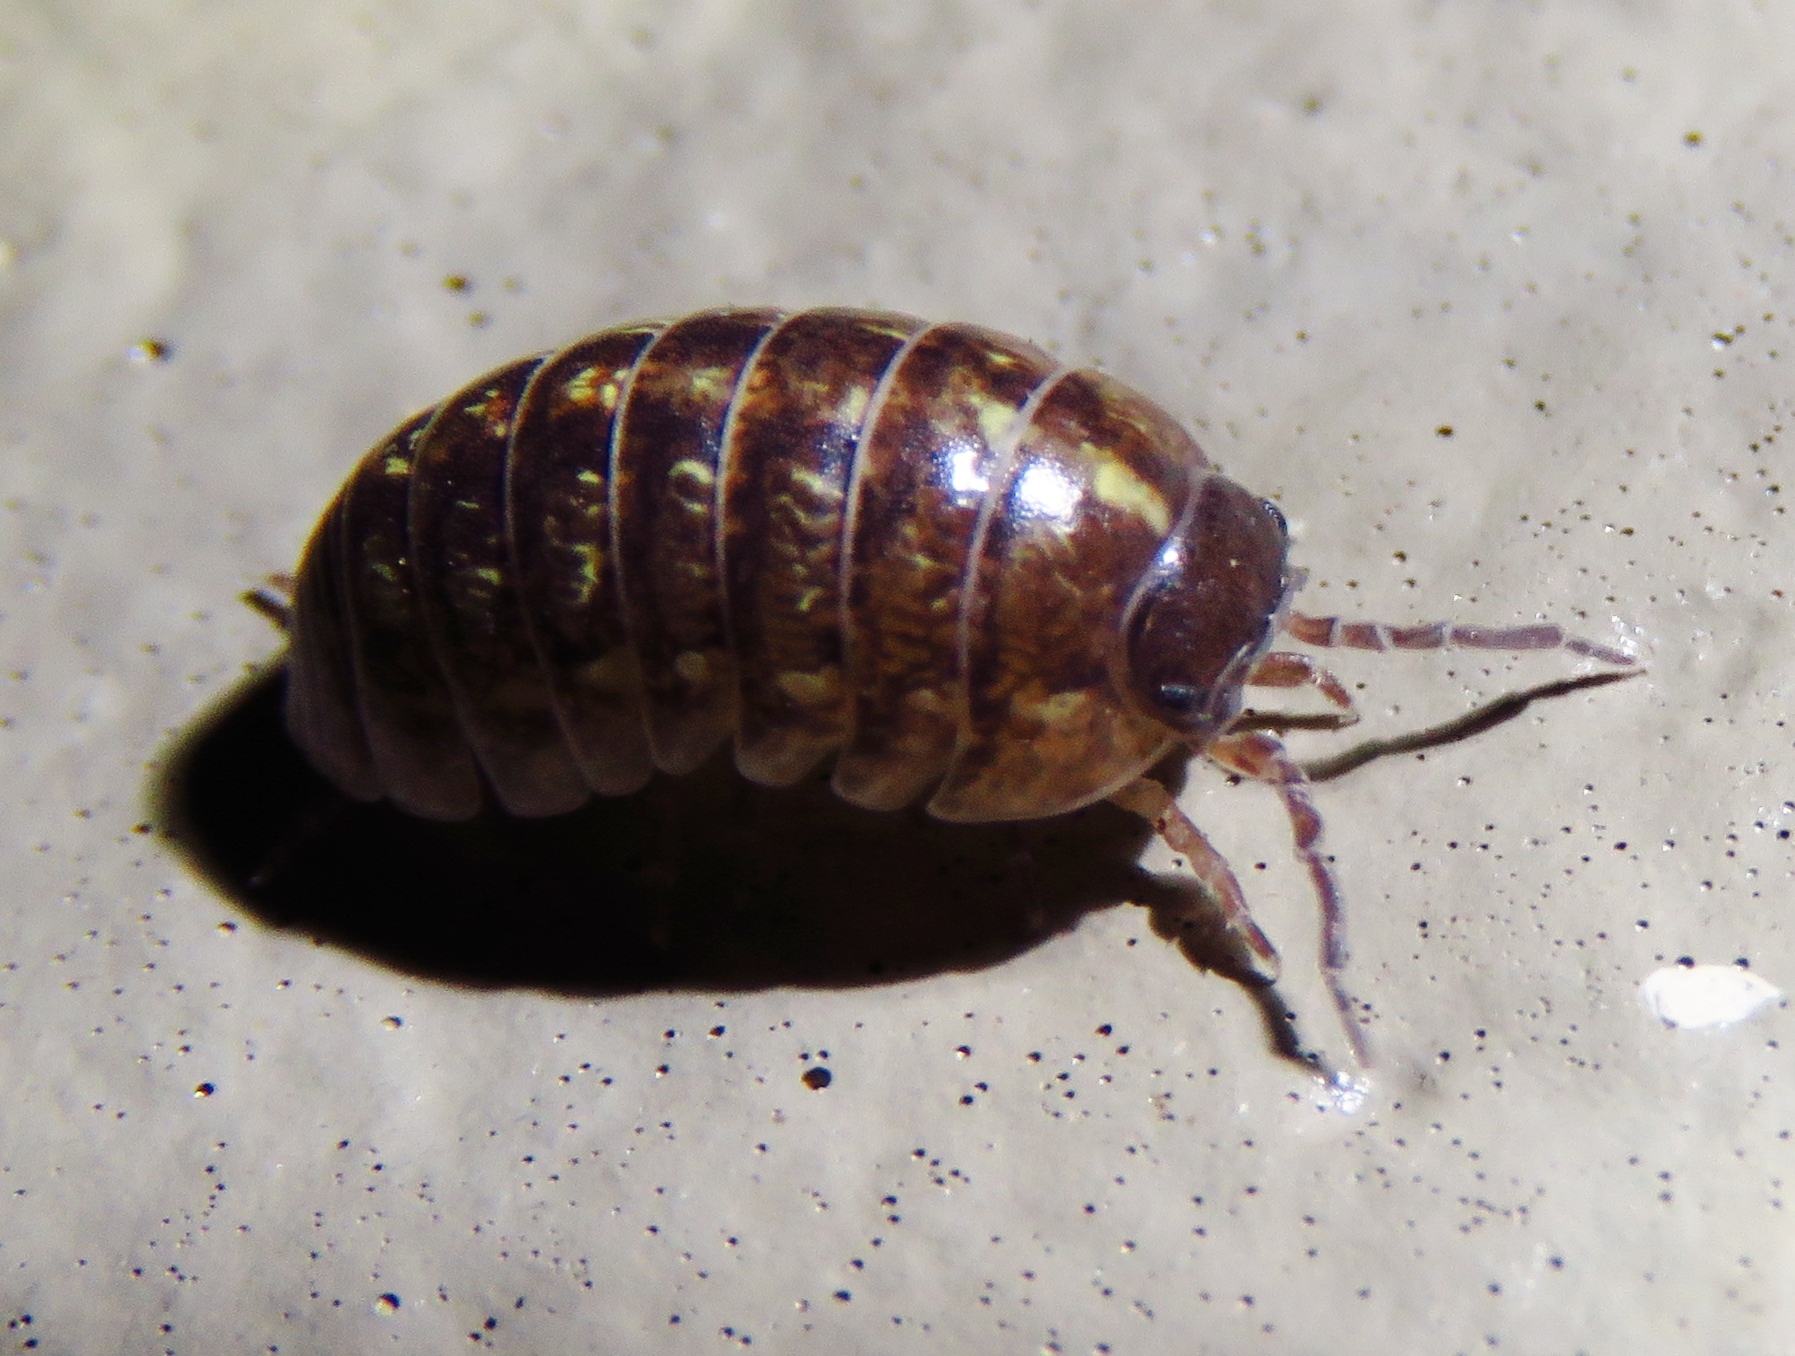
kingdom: Animalia
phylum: Arthropoda
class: Malacostraca
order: Isopoda
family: Armadillidiidae
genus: Armadillidium
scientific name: Armadillidium vulgare
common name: Common pill woodlouse
